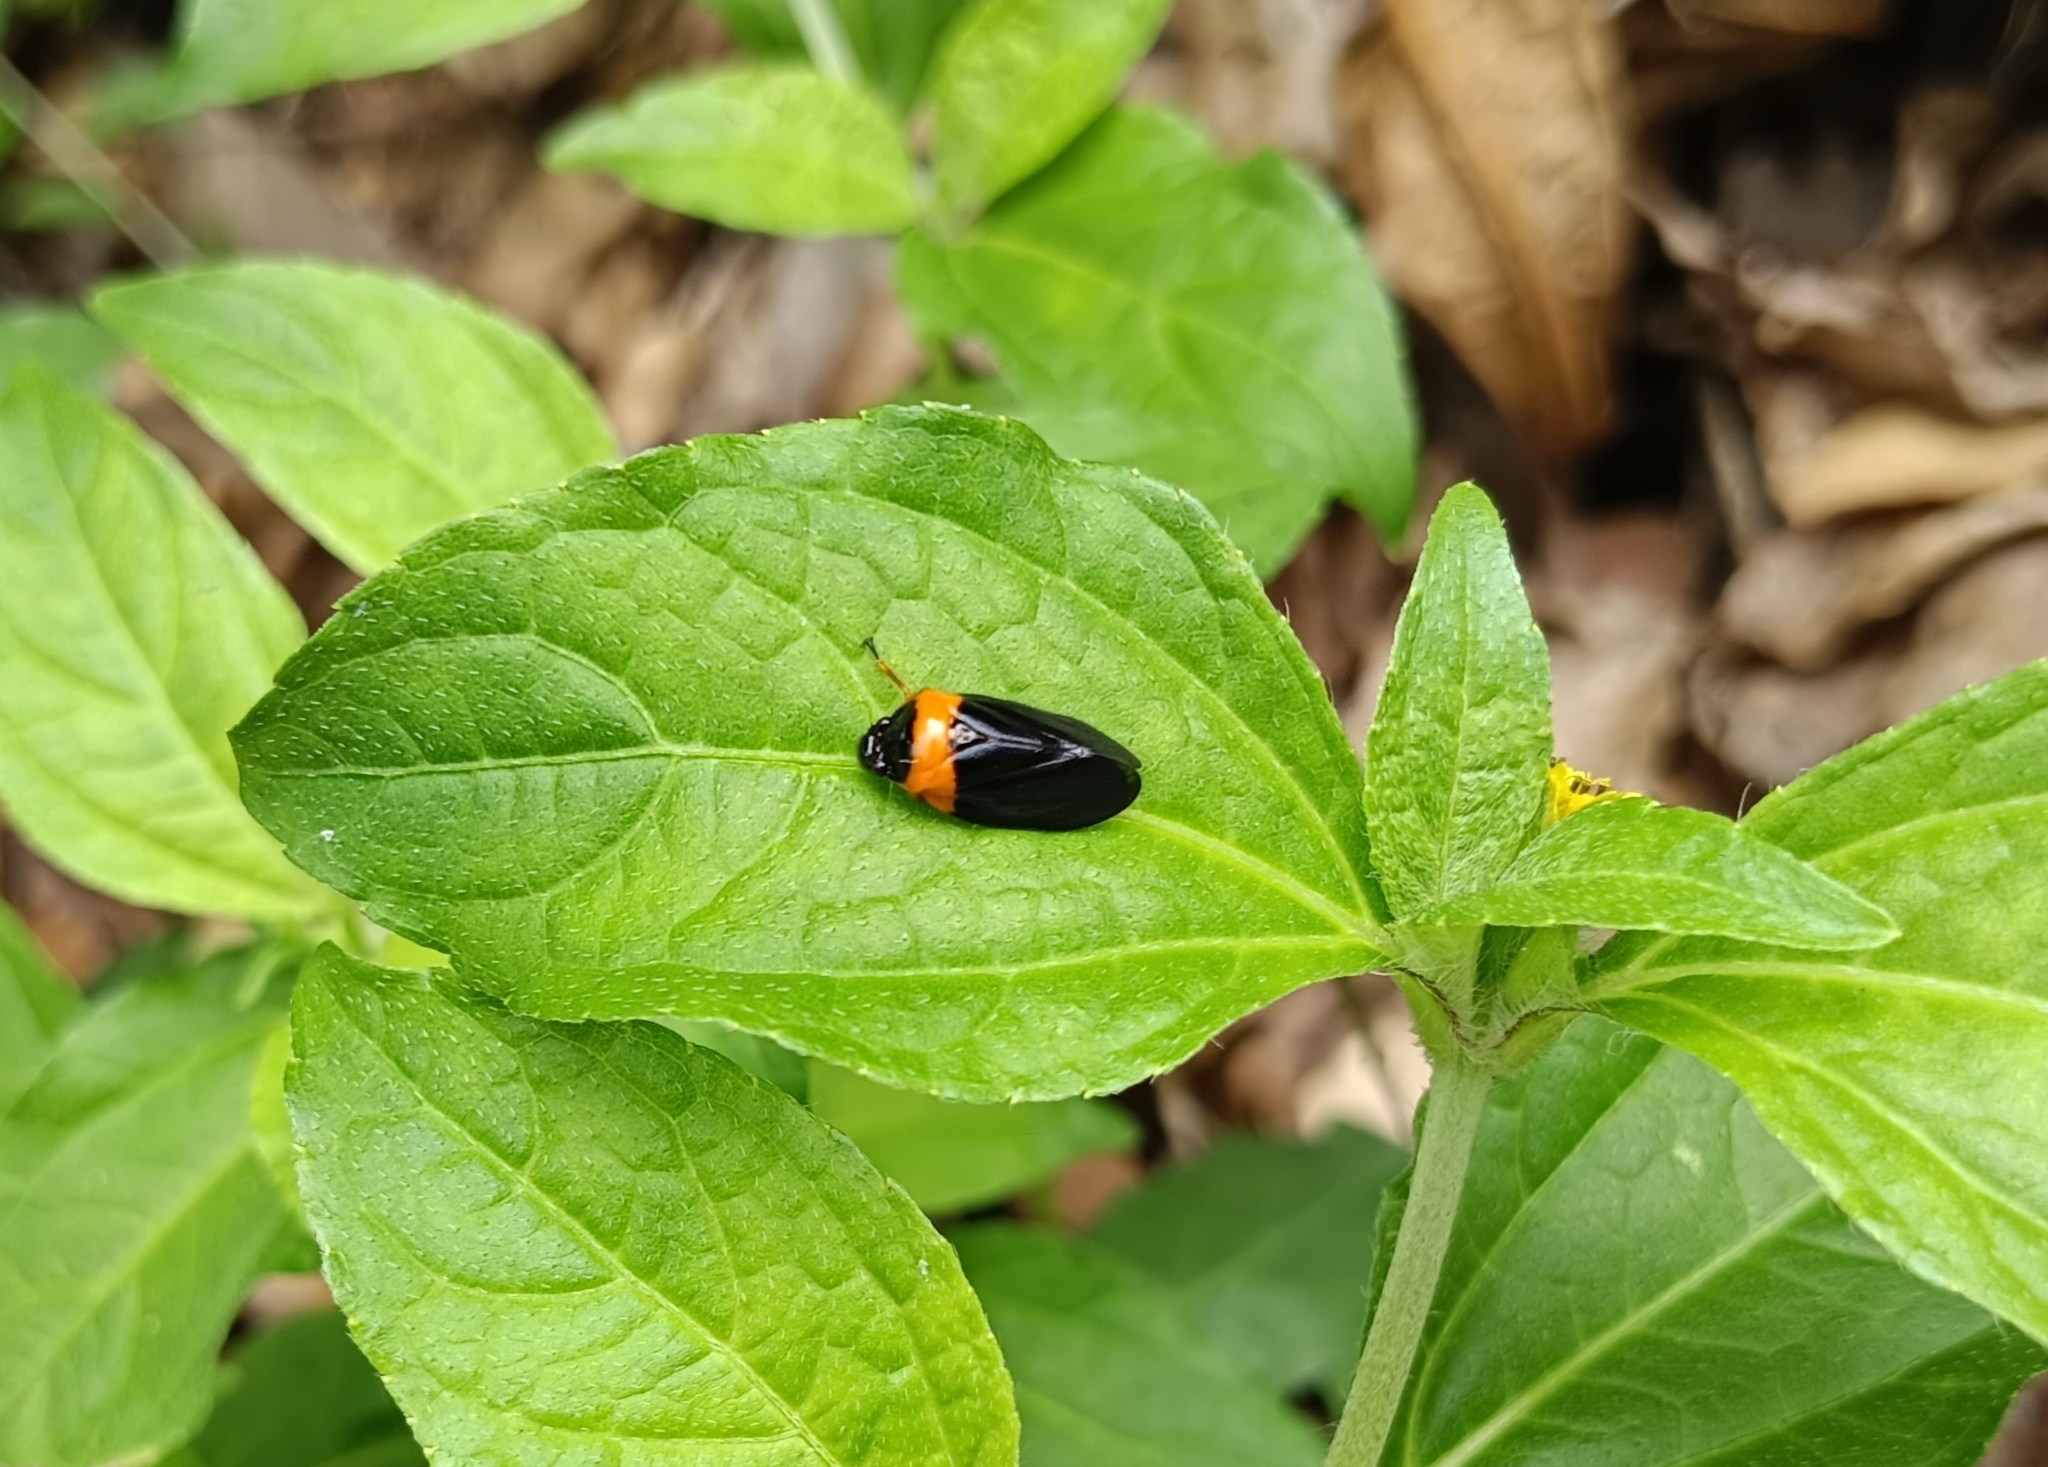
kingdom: Animalia
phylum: Arthropoda
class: Insecta
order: Hemiptera
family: Cercopidae
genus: Phymatostetha
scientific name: Phymatostetha deschampsi
